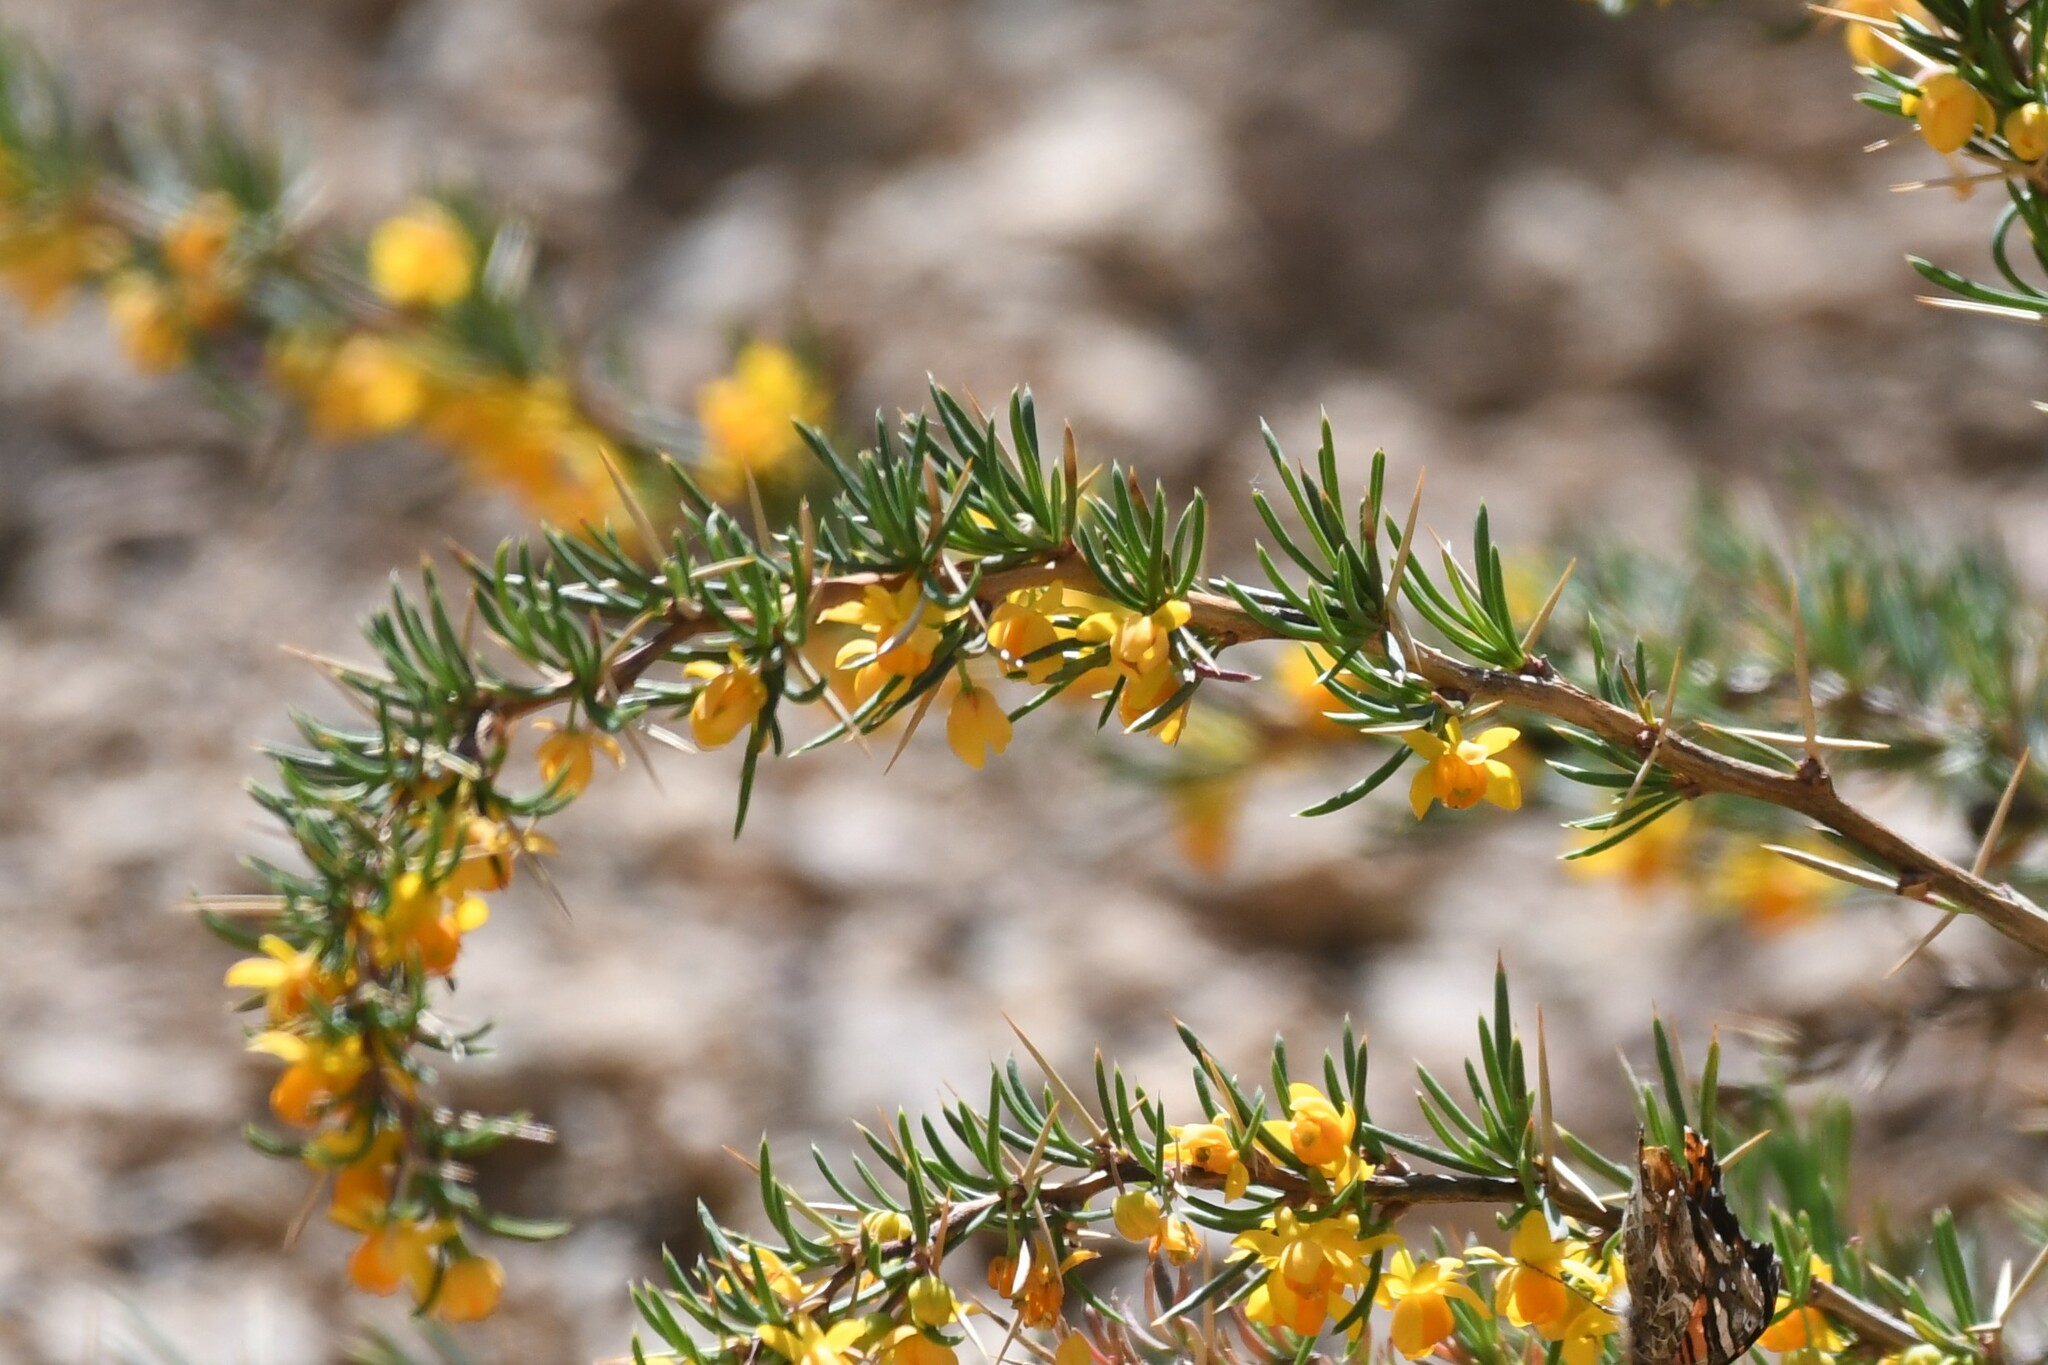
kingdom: Plantae
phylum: Tracheophyta
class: Magnoliopsida
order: Ranunculales
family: Berberidaceae
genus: Berberis
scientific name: Berberis empetrifolia
